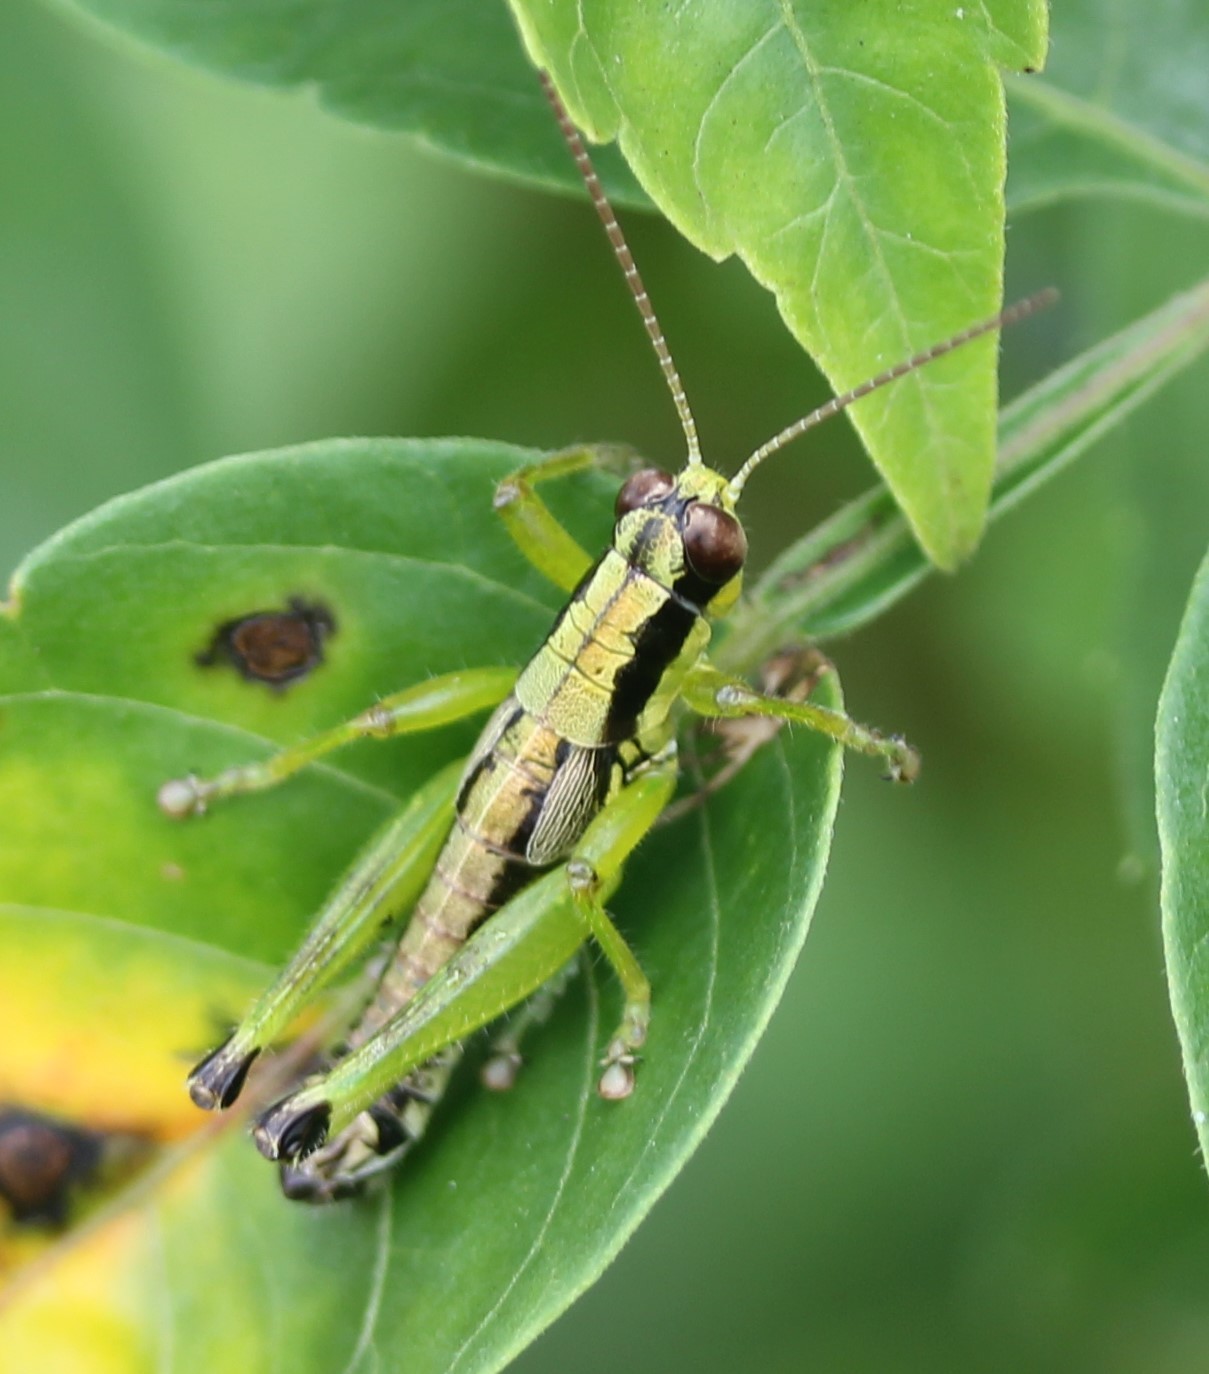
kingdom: Animalia
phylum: Arthropoda
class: Insecta
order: Orthoptera
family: Acrididae
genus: Melanoplus
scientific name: Melanoplus gracilis
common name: Graceful narrow-winged locust
